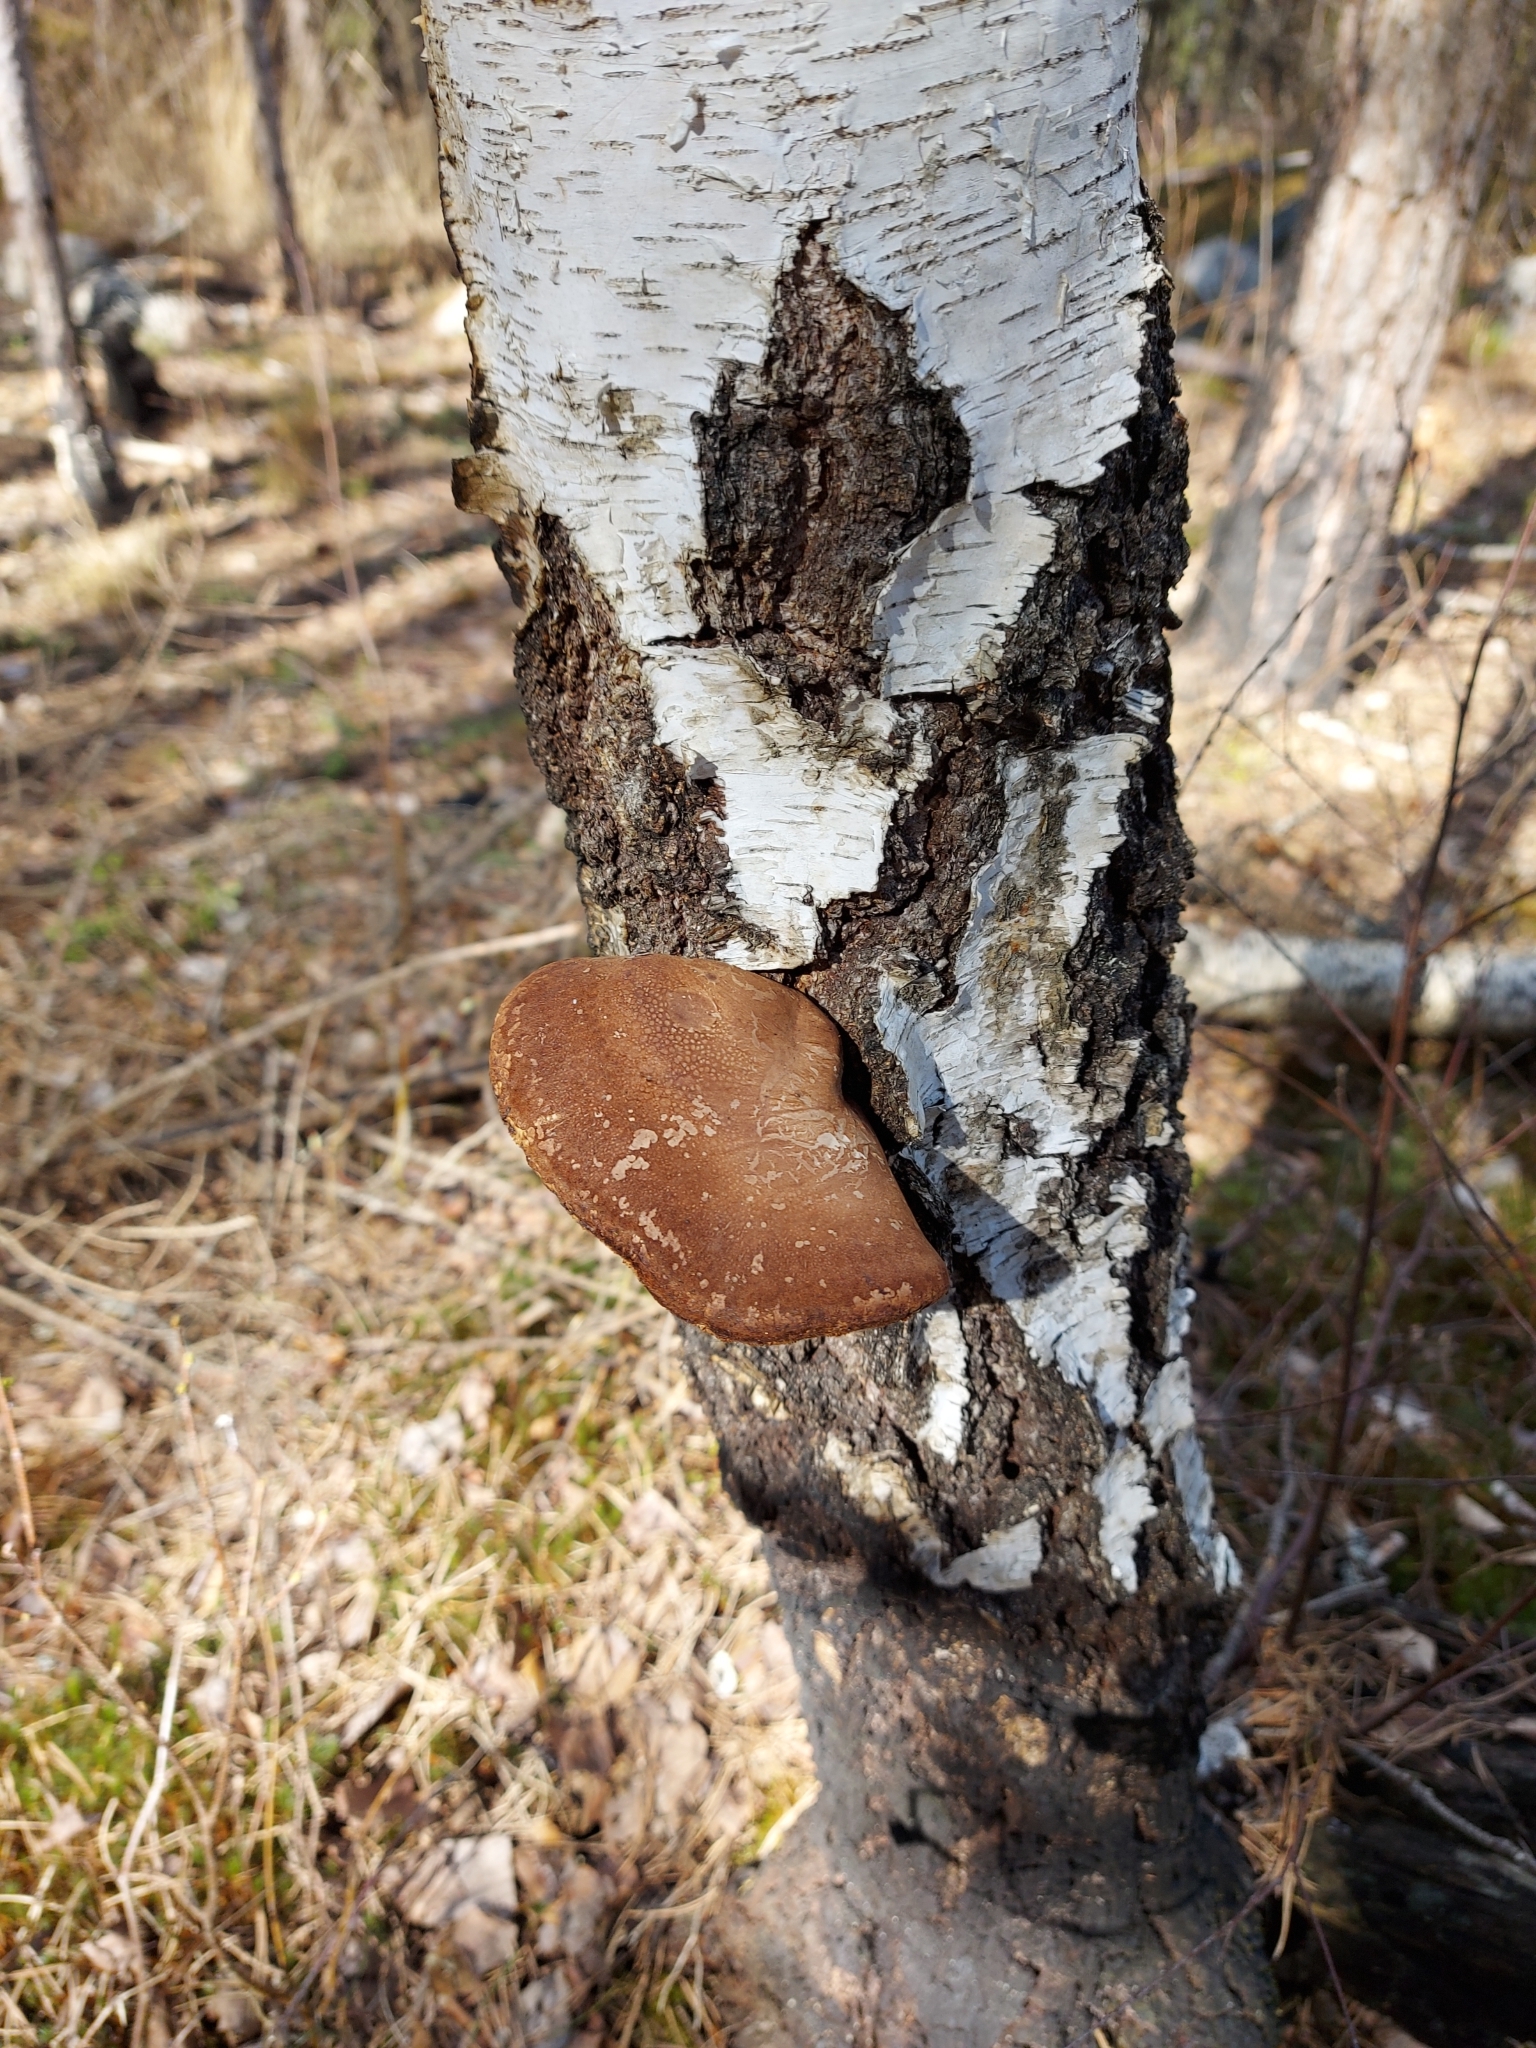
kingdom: Fungi
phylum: Basidiomycota
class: Agaricomycetes
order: Polyporales
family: Fomitopsidaceae
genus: Fomitopsis
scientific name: Fomitopsis betulina
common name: Birch polypore
